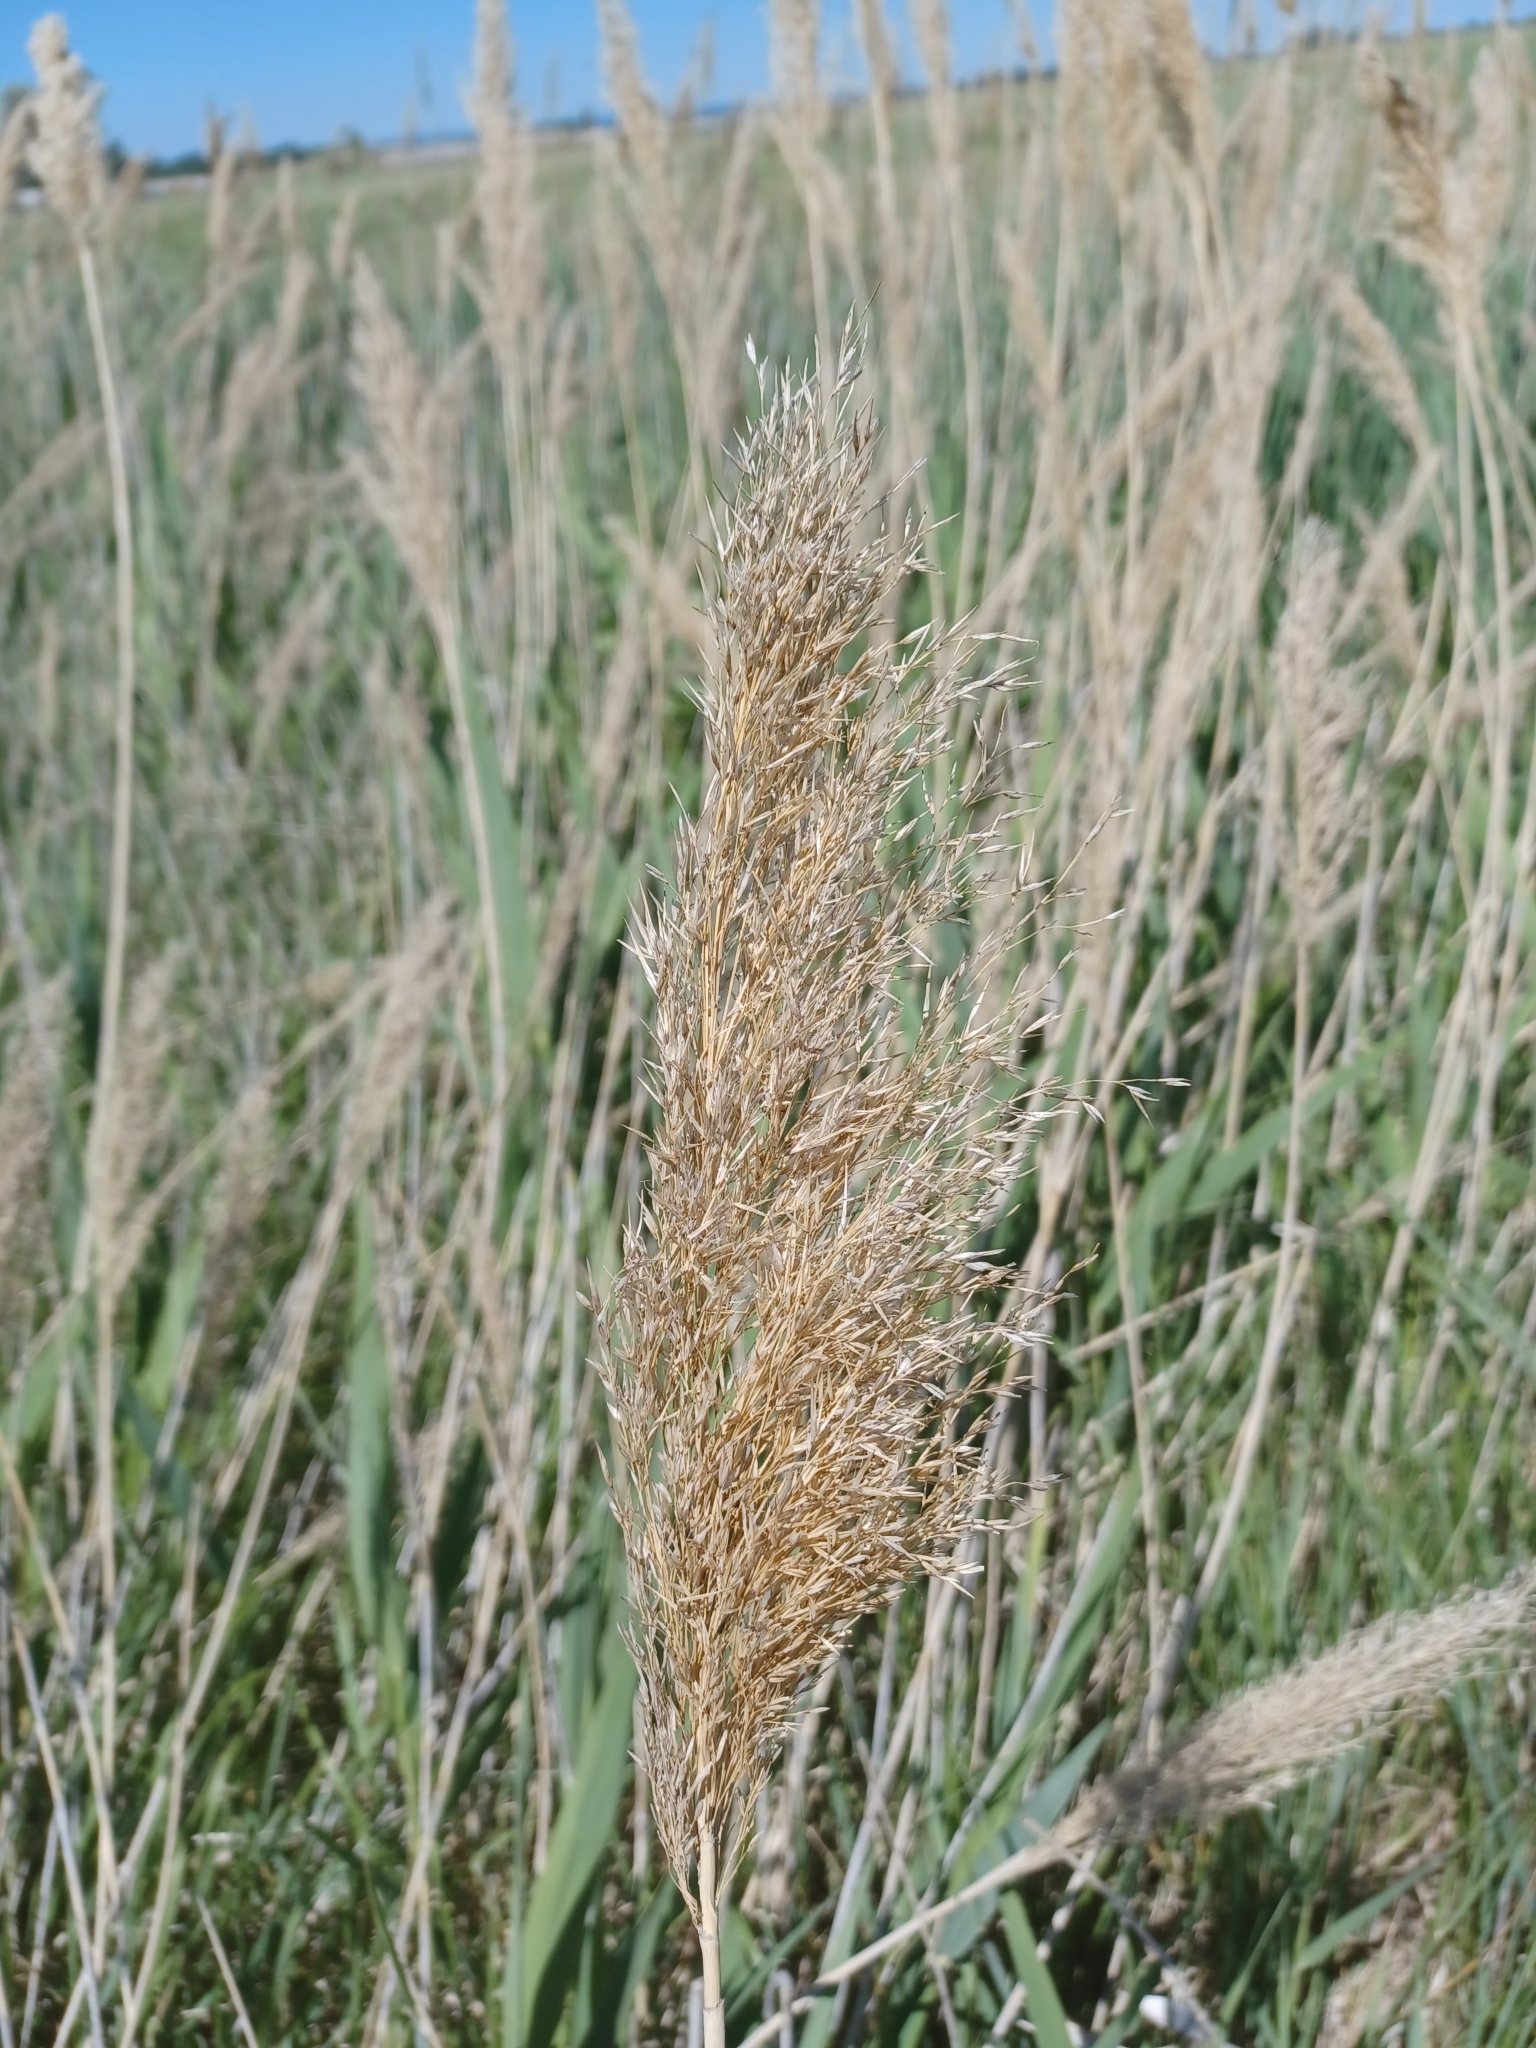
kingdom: Plantae
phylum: Tracheophyta
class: Liliopsida
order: Poales
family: Poaceae
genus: Phragmites
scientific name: Phragmites australis
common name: Common reed
